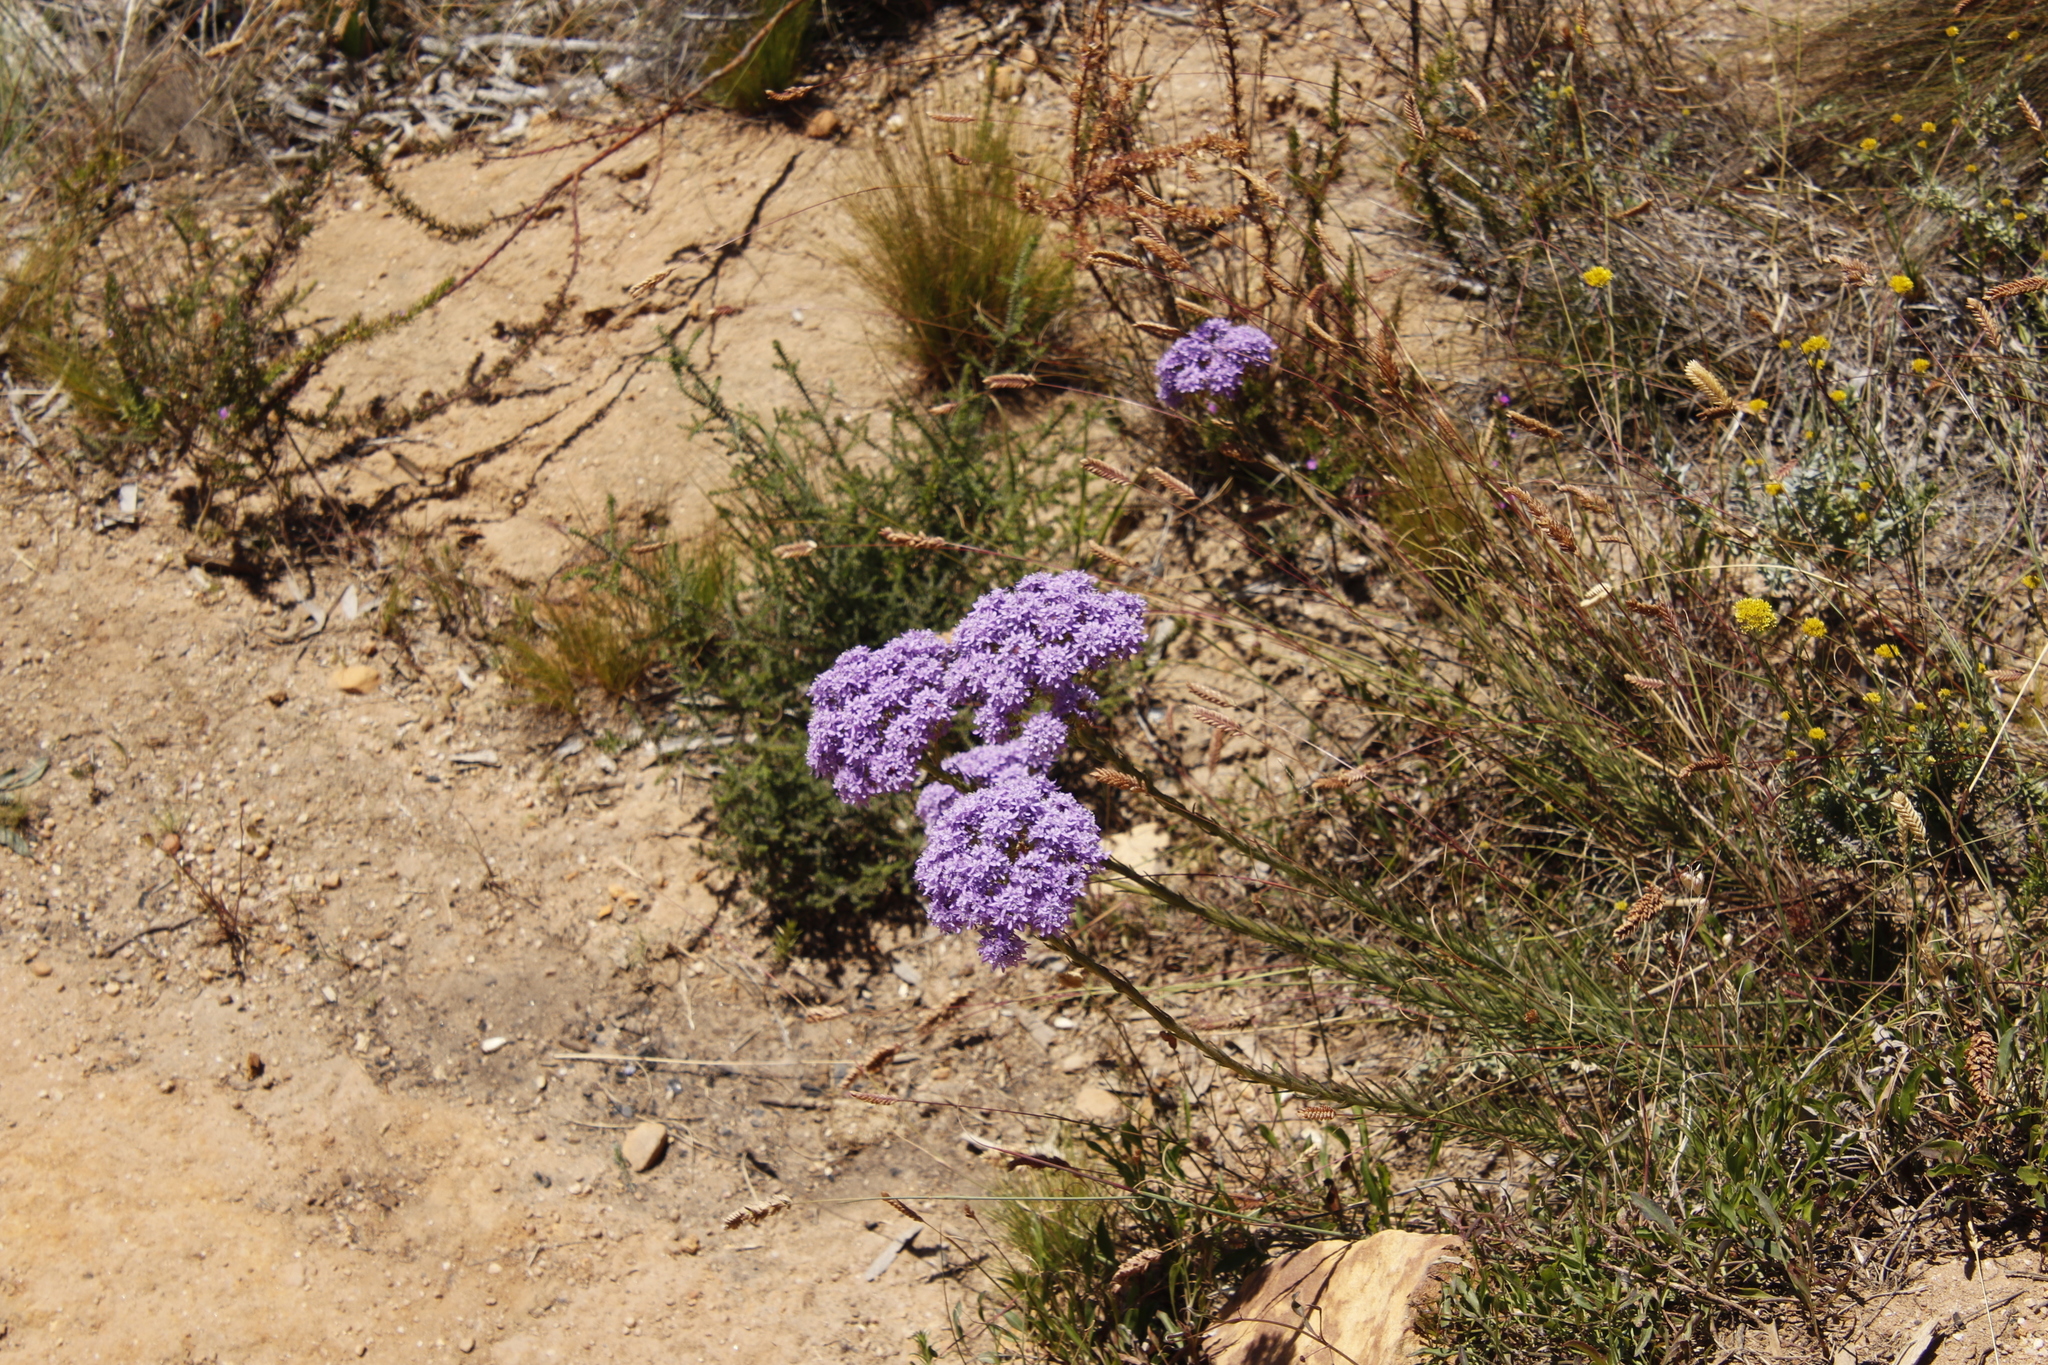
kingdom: Plantae
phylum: Tracheophyta
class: Magnoliopsida
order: Lamiales
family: Scrophulariaceae
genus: Pseudoselago
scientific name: Pseudoselago spuria
